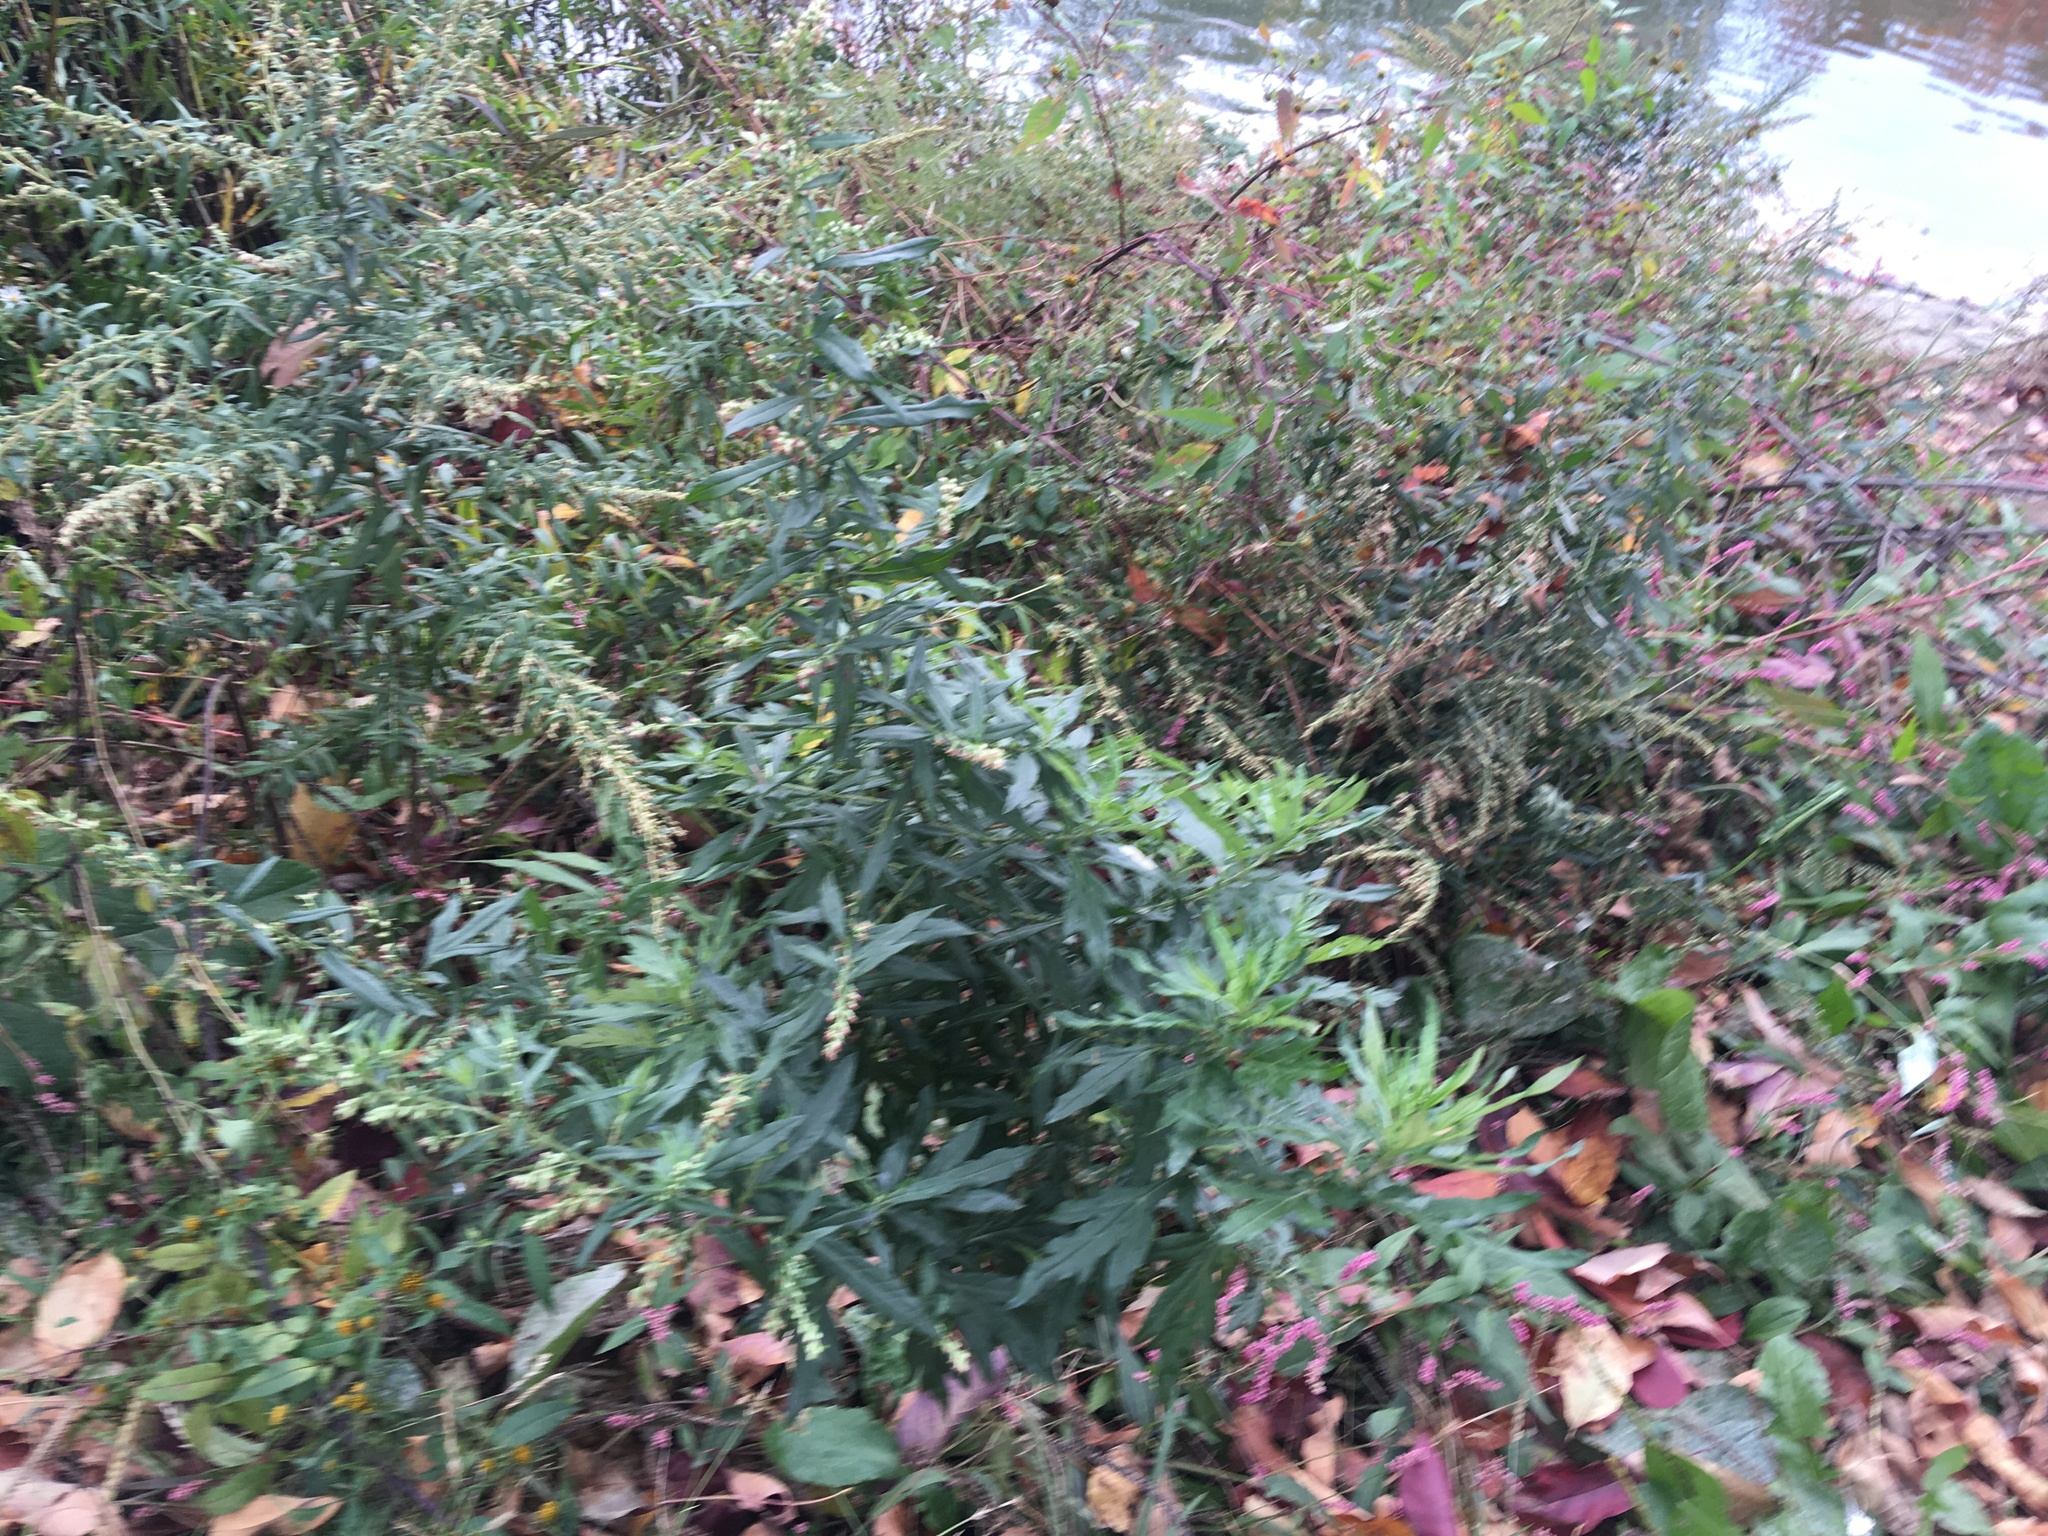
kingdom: Plantae
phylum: Tracheophyta
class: Magnoliopsida
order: Asterales
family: Asteraceae
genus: Artemisia
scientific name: Artemisia vulgaris
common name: Mugwort
